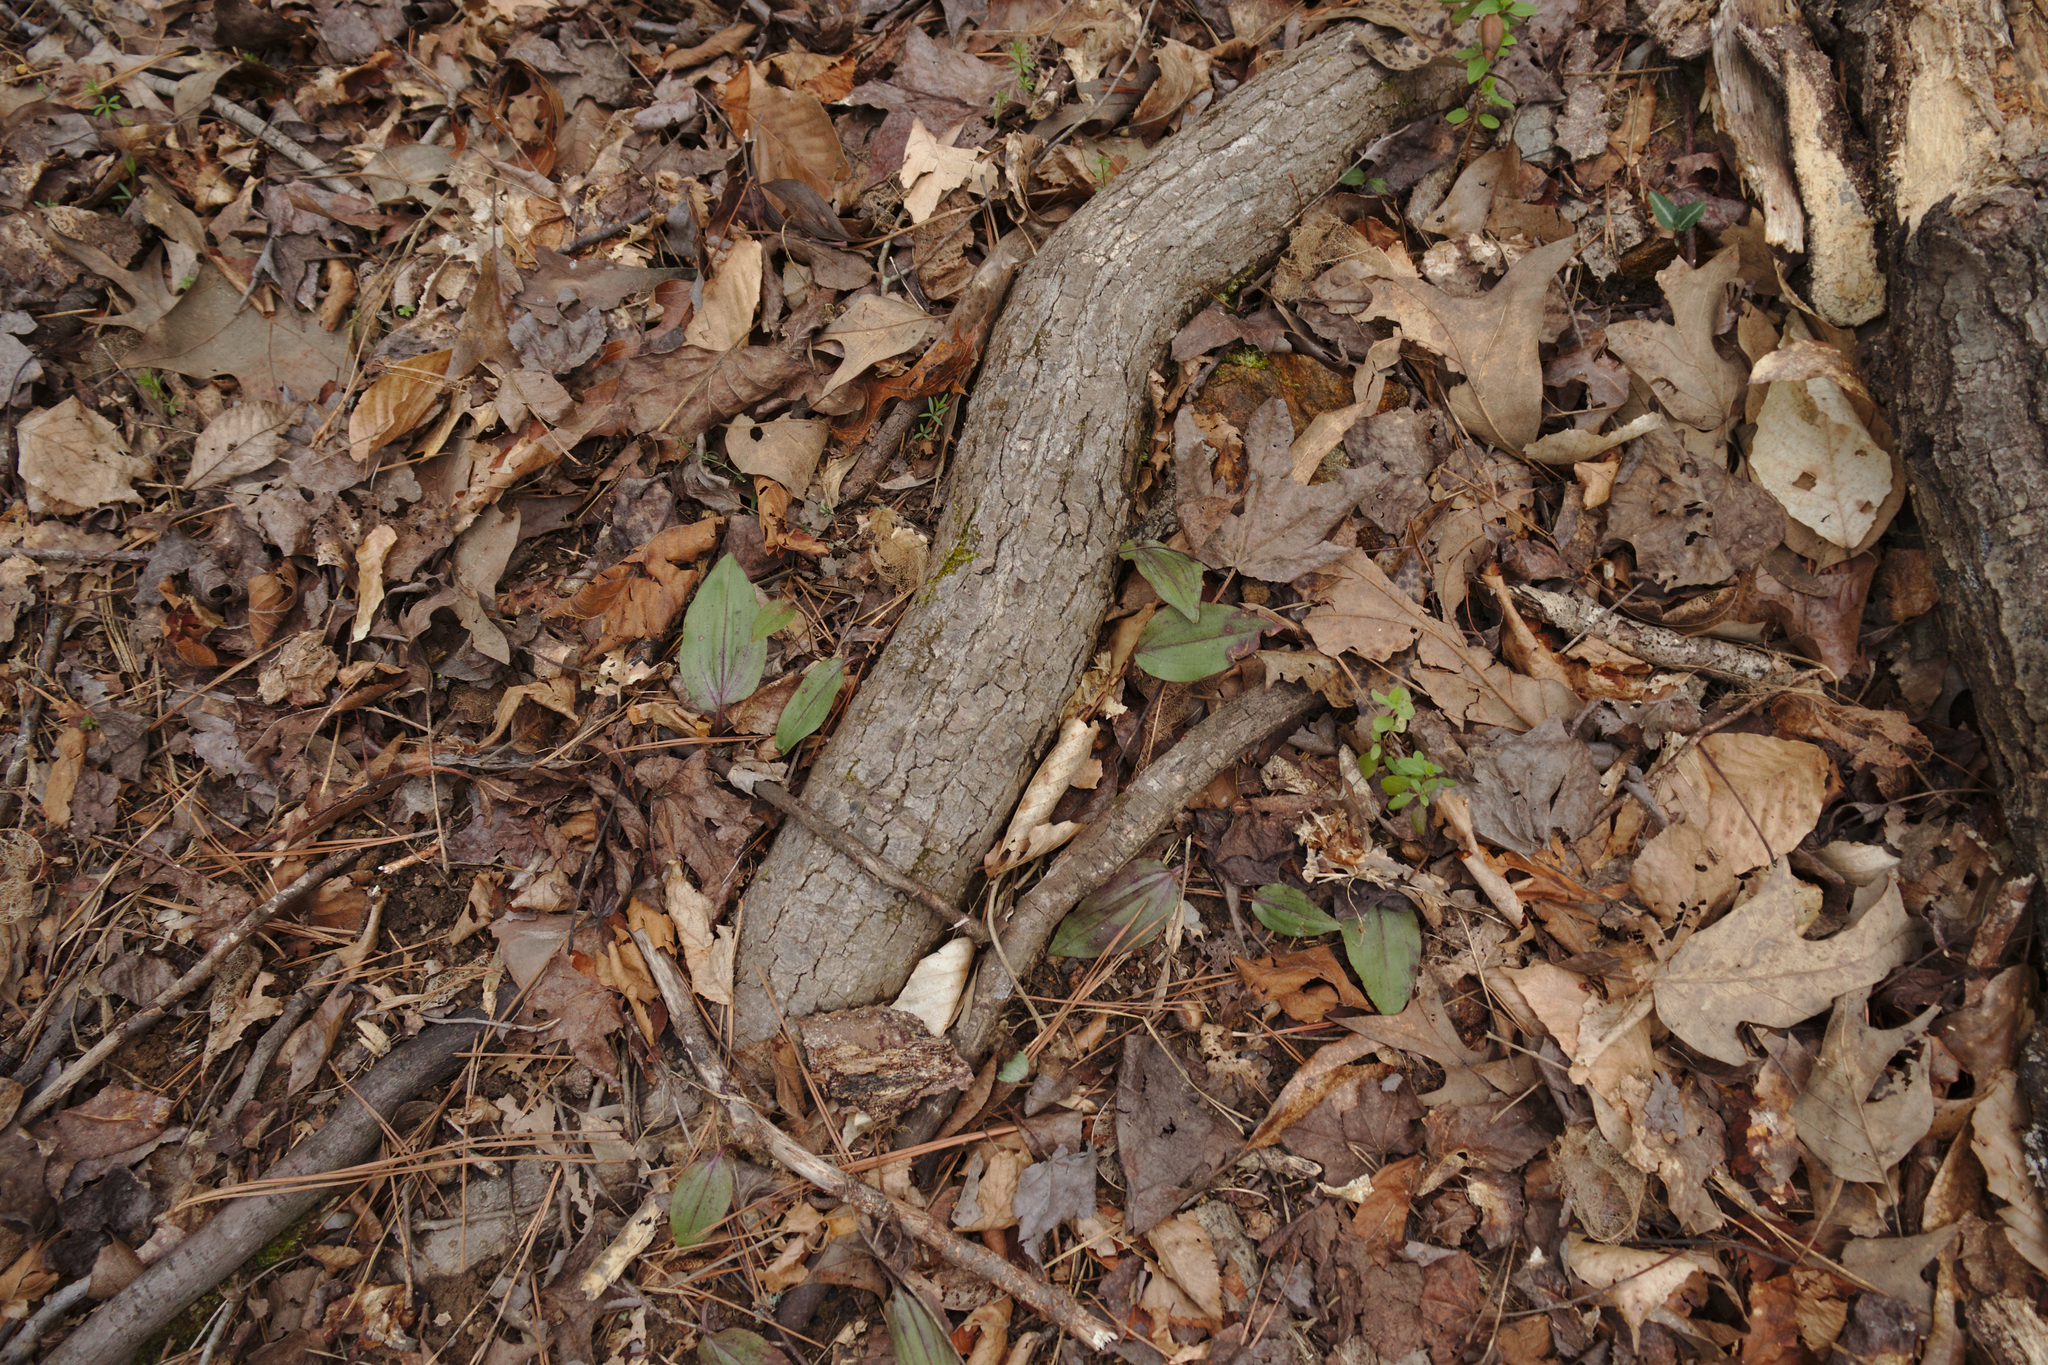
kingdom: Plantae
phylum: Tracheophyta
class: Liliopsida
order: Asparagales
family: Orchidaceae
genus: Tipularia
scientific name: Tipularia discolor
